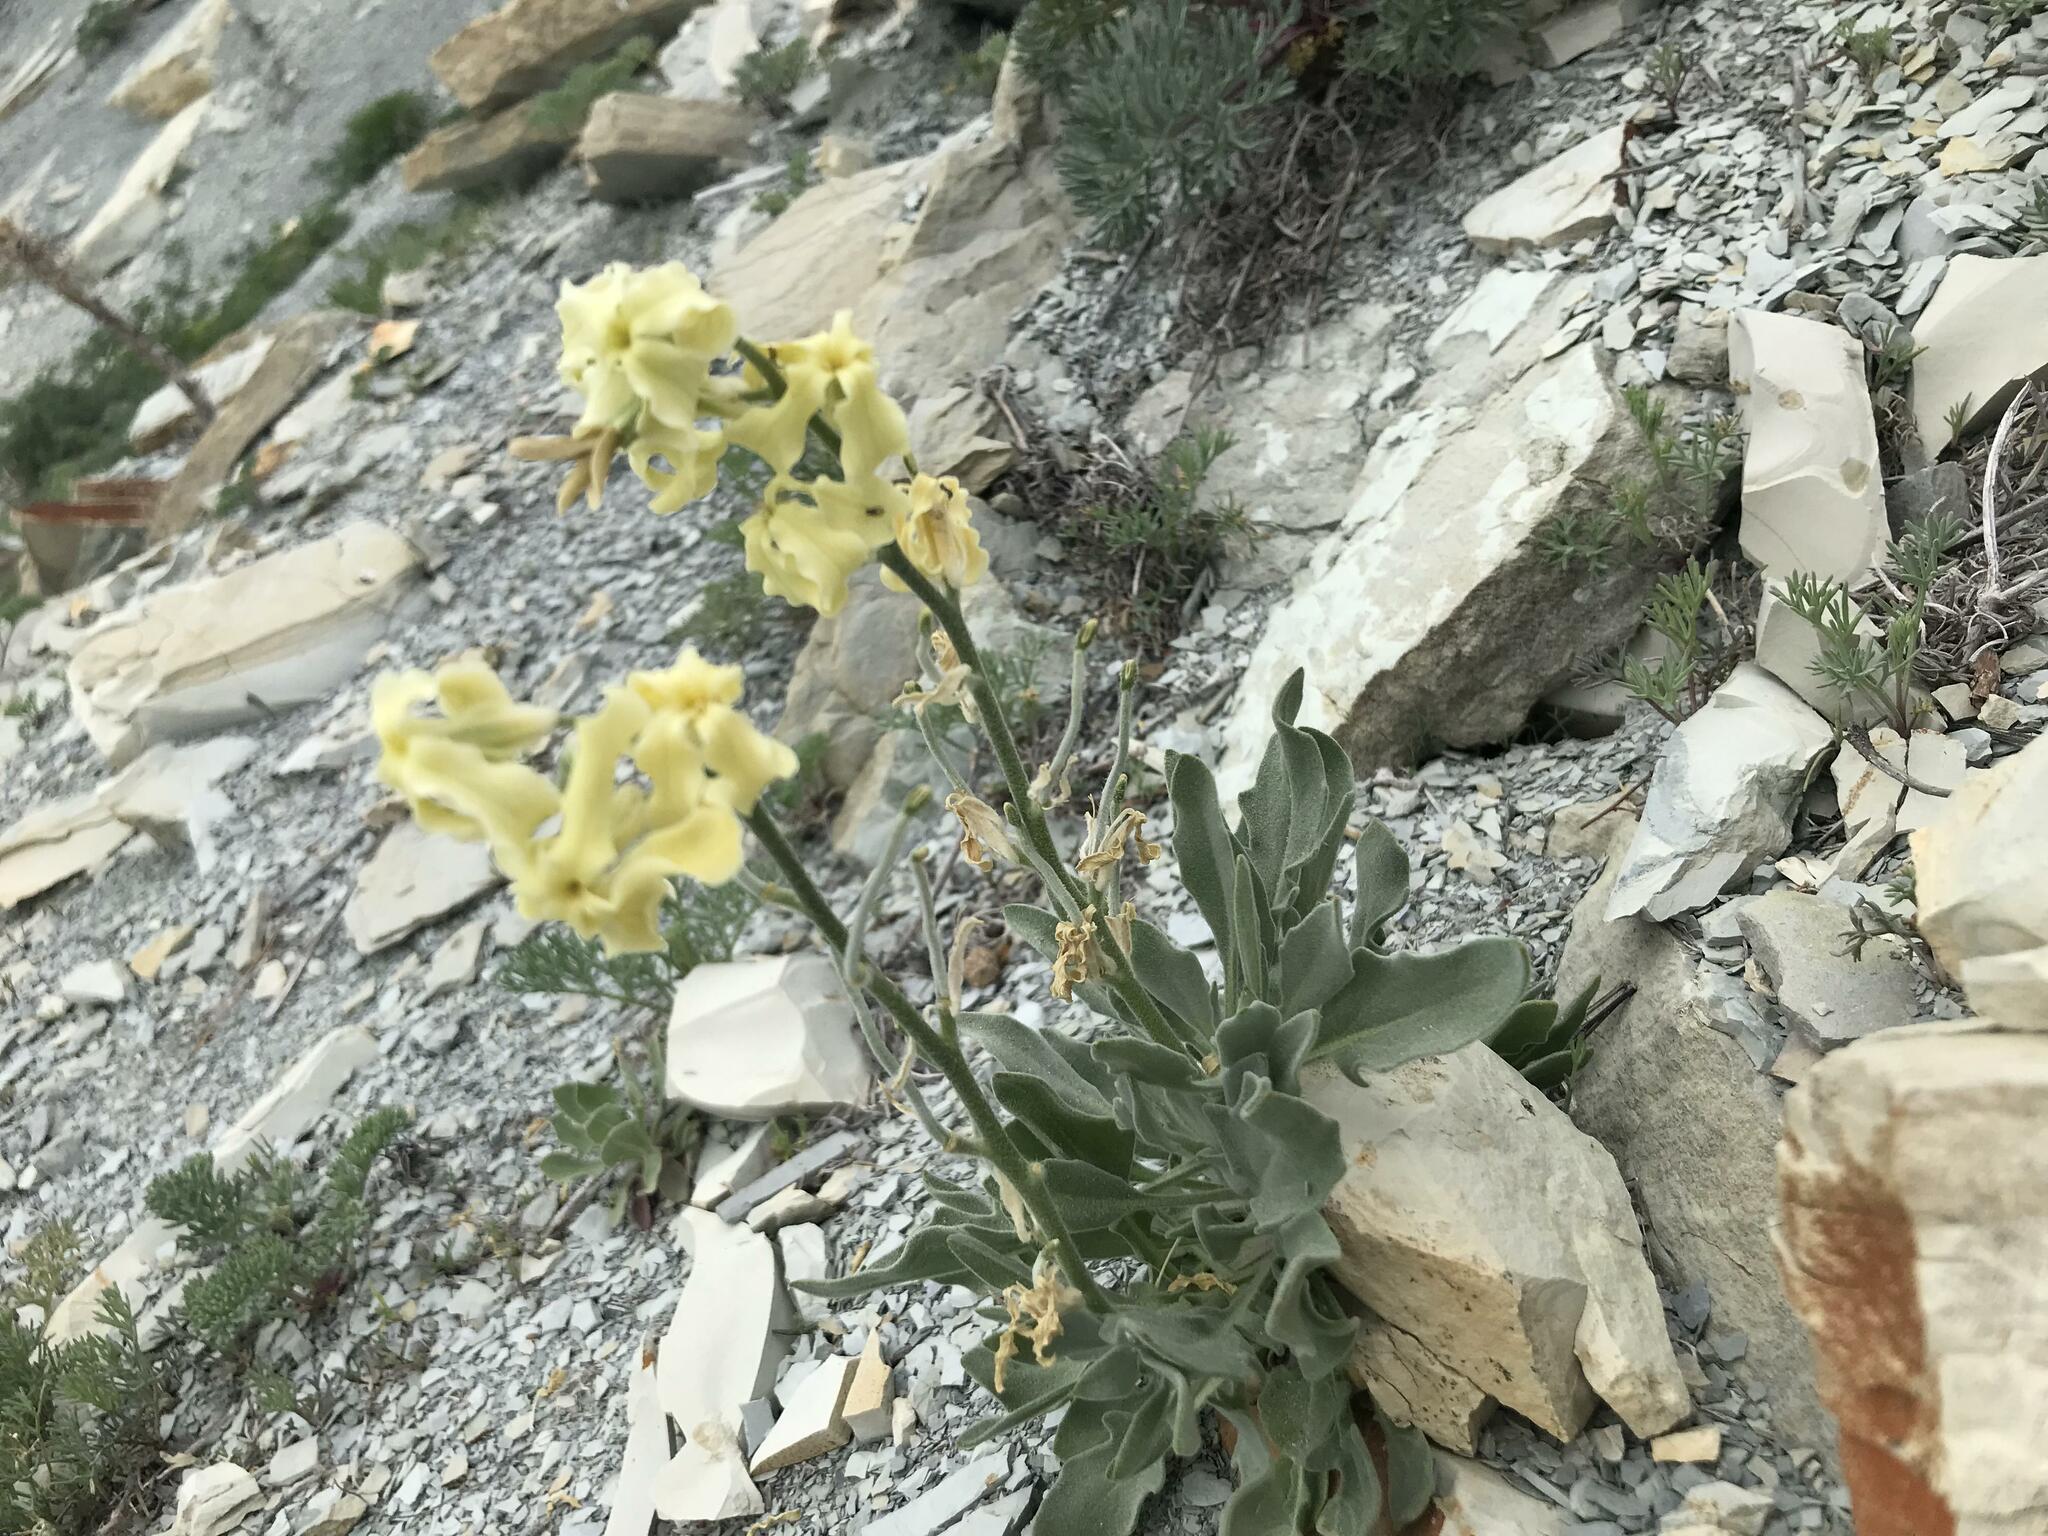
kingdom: Plantae
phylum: Tracheophyta
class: Magnoliopsida
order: Brassicales
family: Brassicaceae
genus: Matthiola
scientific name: Matthiola odoratissima
